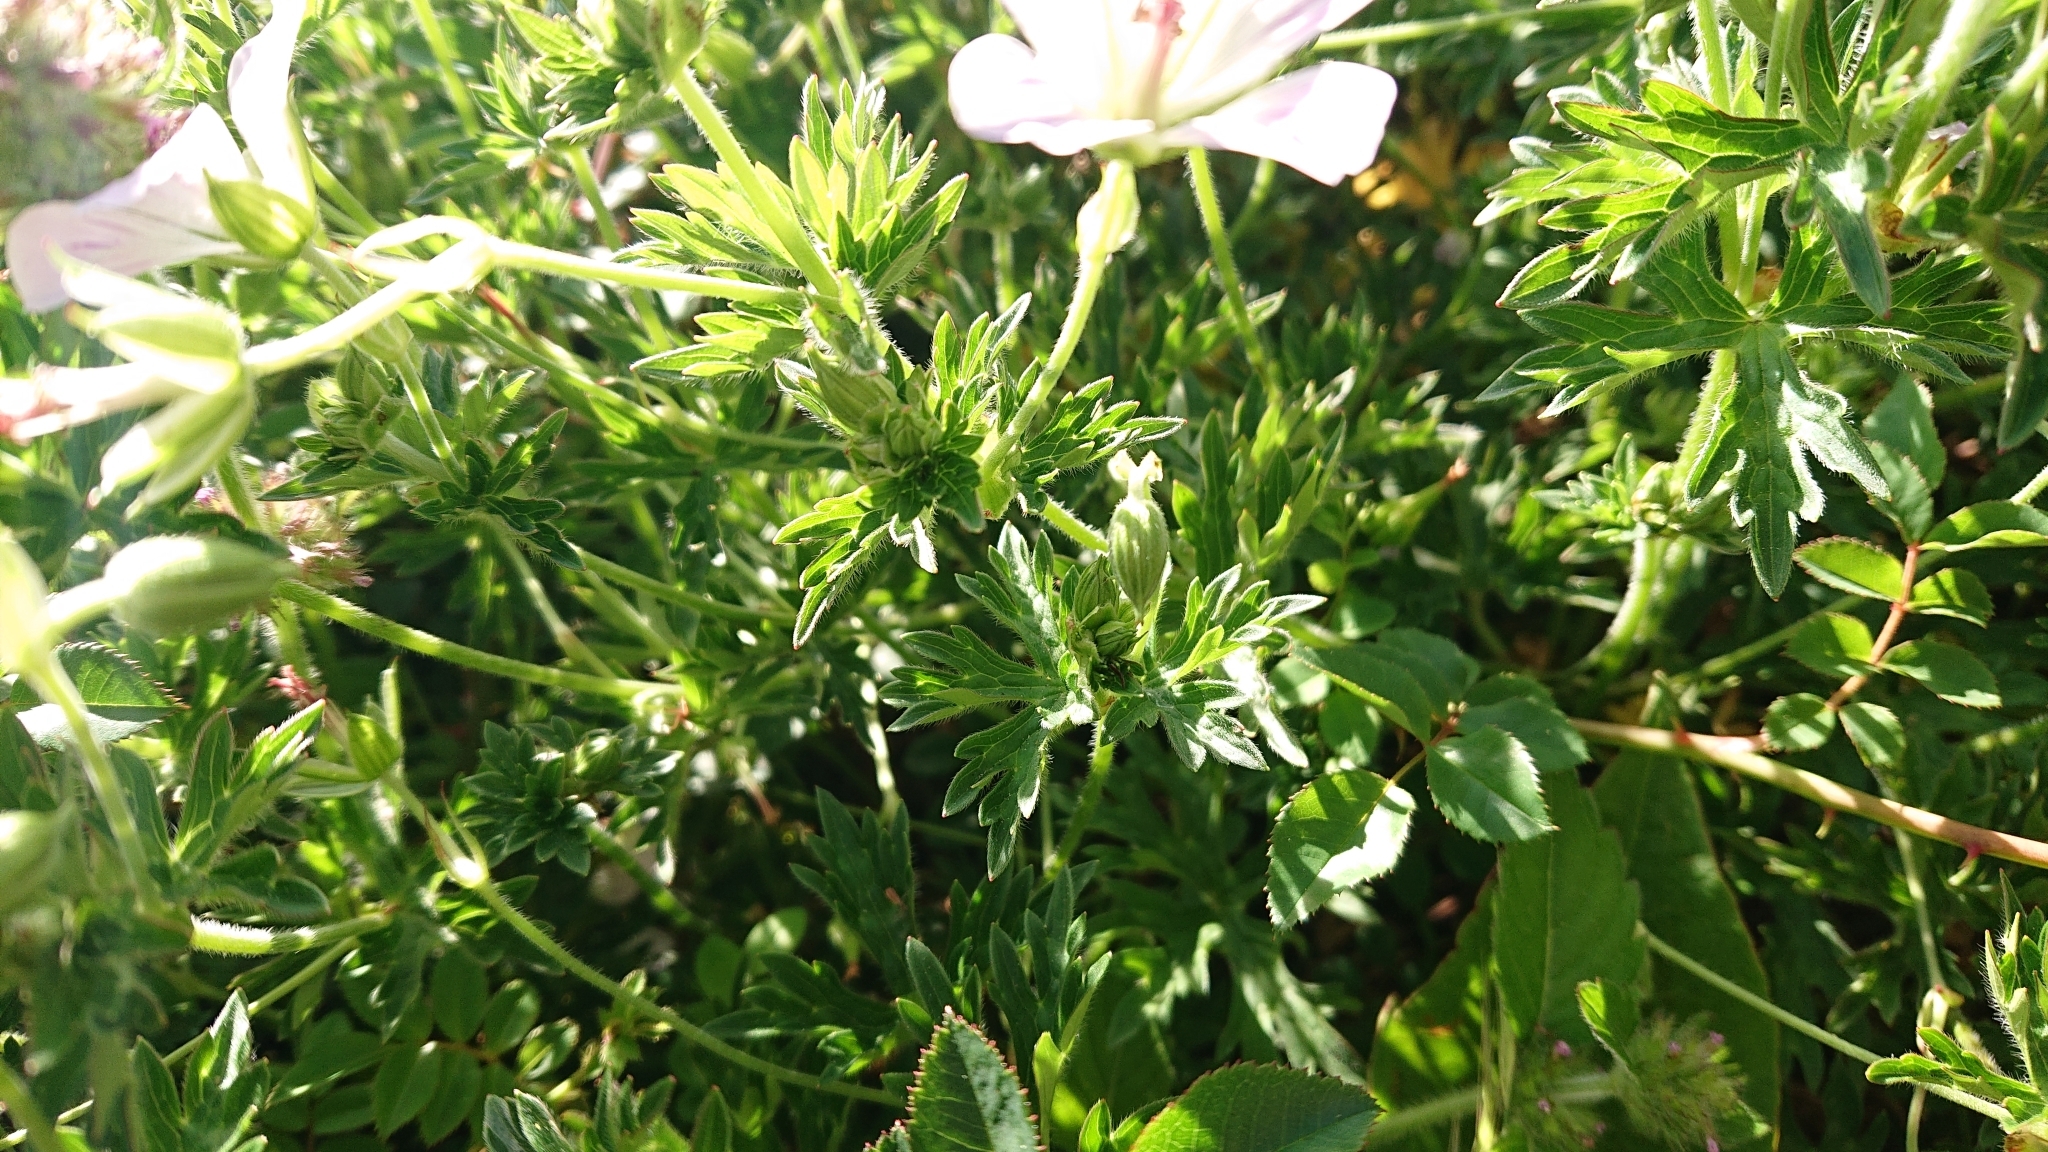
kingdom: Plantae
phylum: Tracheophyta
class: Magnoliopsida
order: Geraniales
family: Geraniaceae
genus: Geranium
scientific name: Geranium hayatanum
